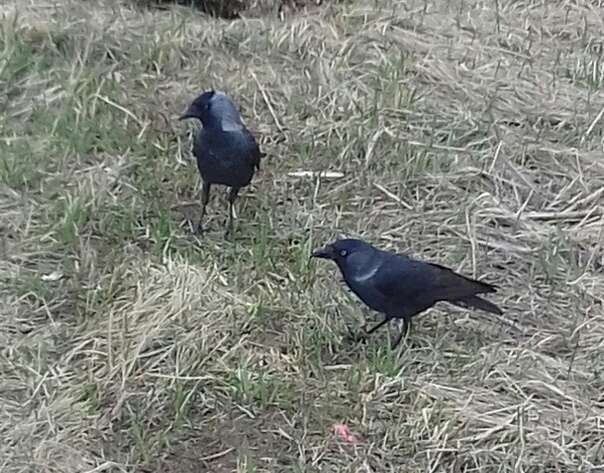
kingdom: Animalia
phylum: Chordata
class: Aves
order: Passeriformes
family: Corvidae
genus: Coloeus
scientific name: Coloeus monedula
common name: Western jackdaw
